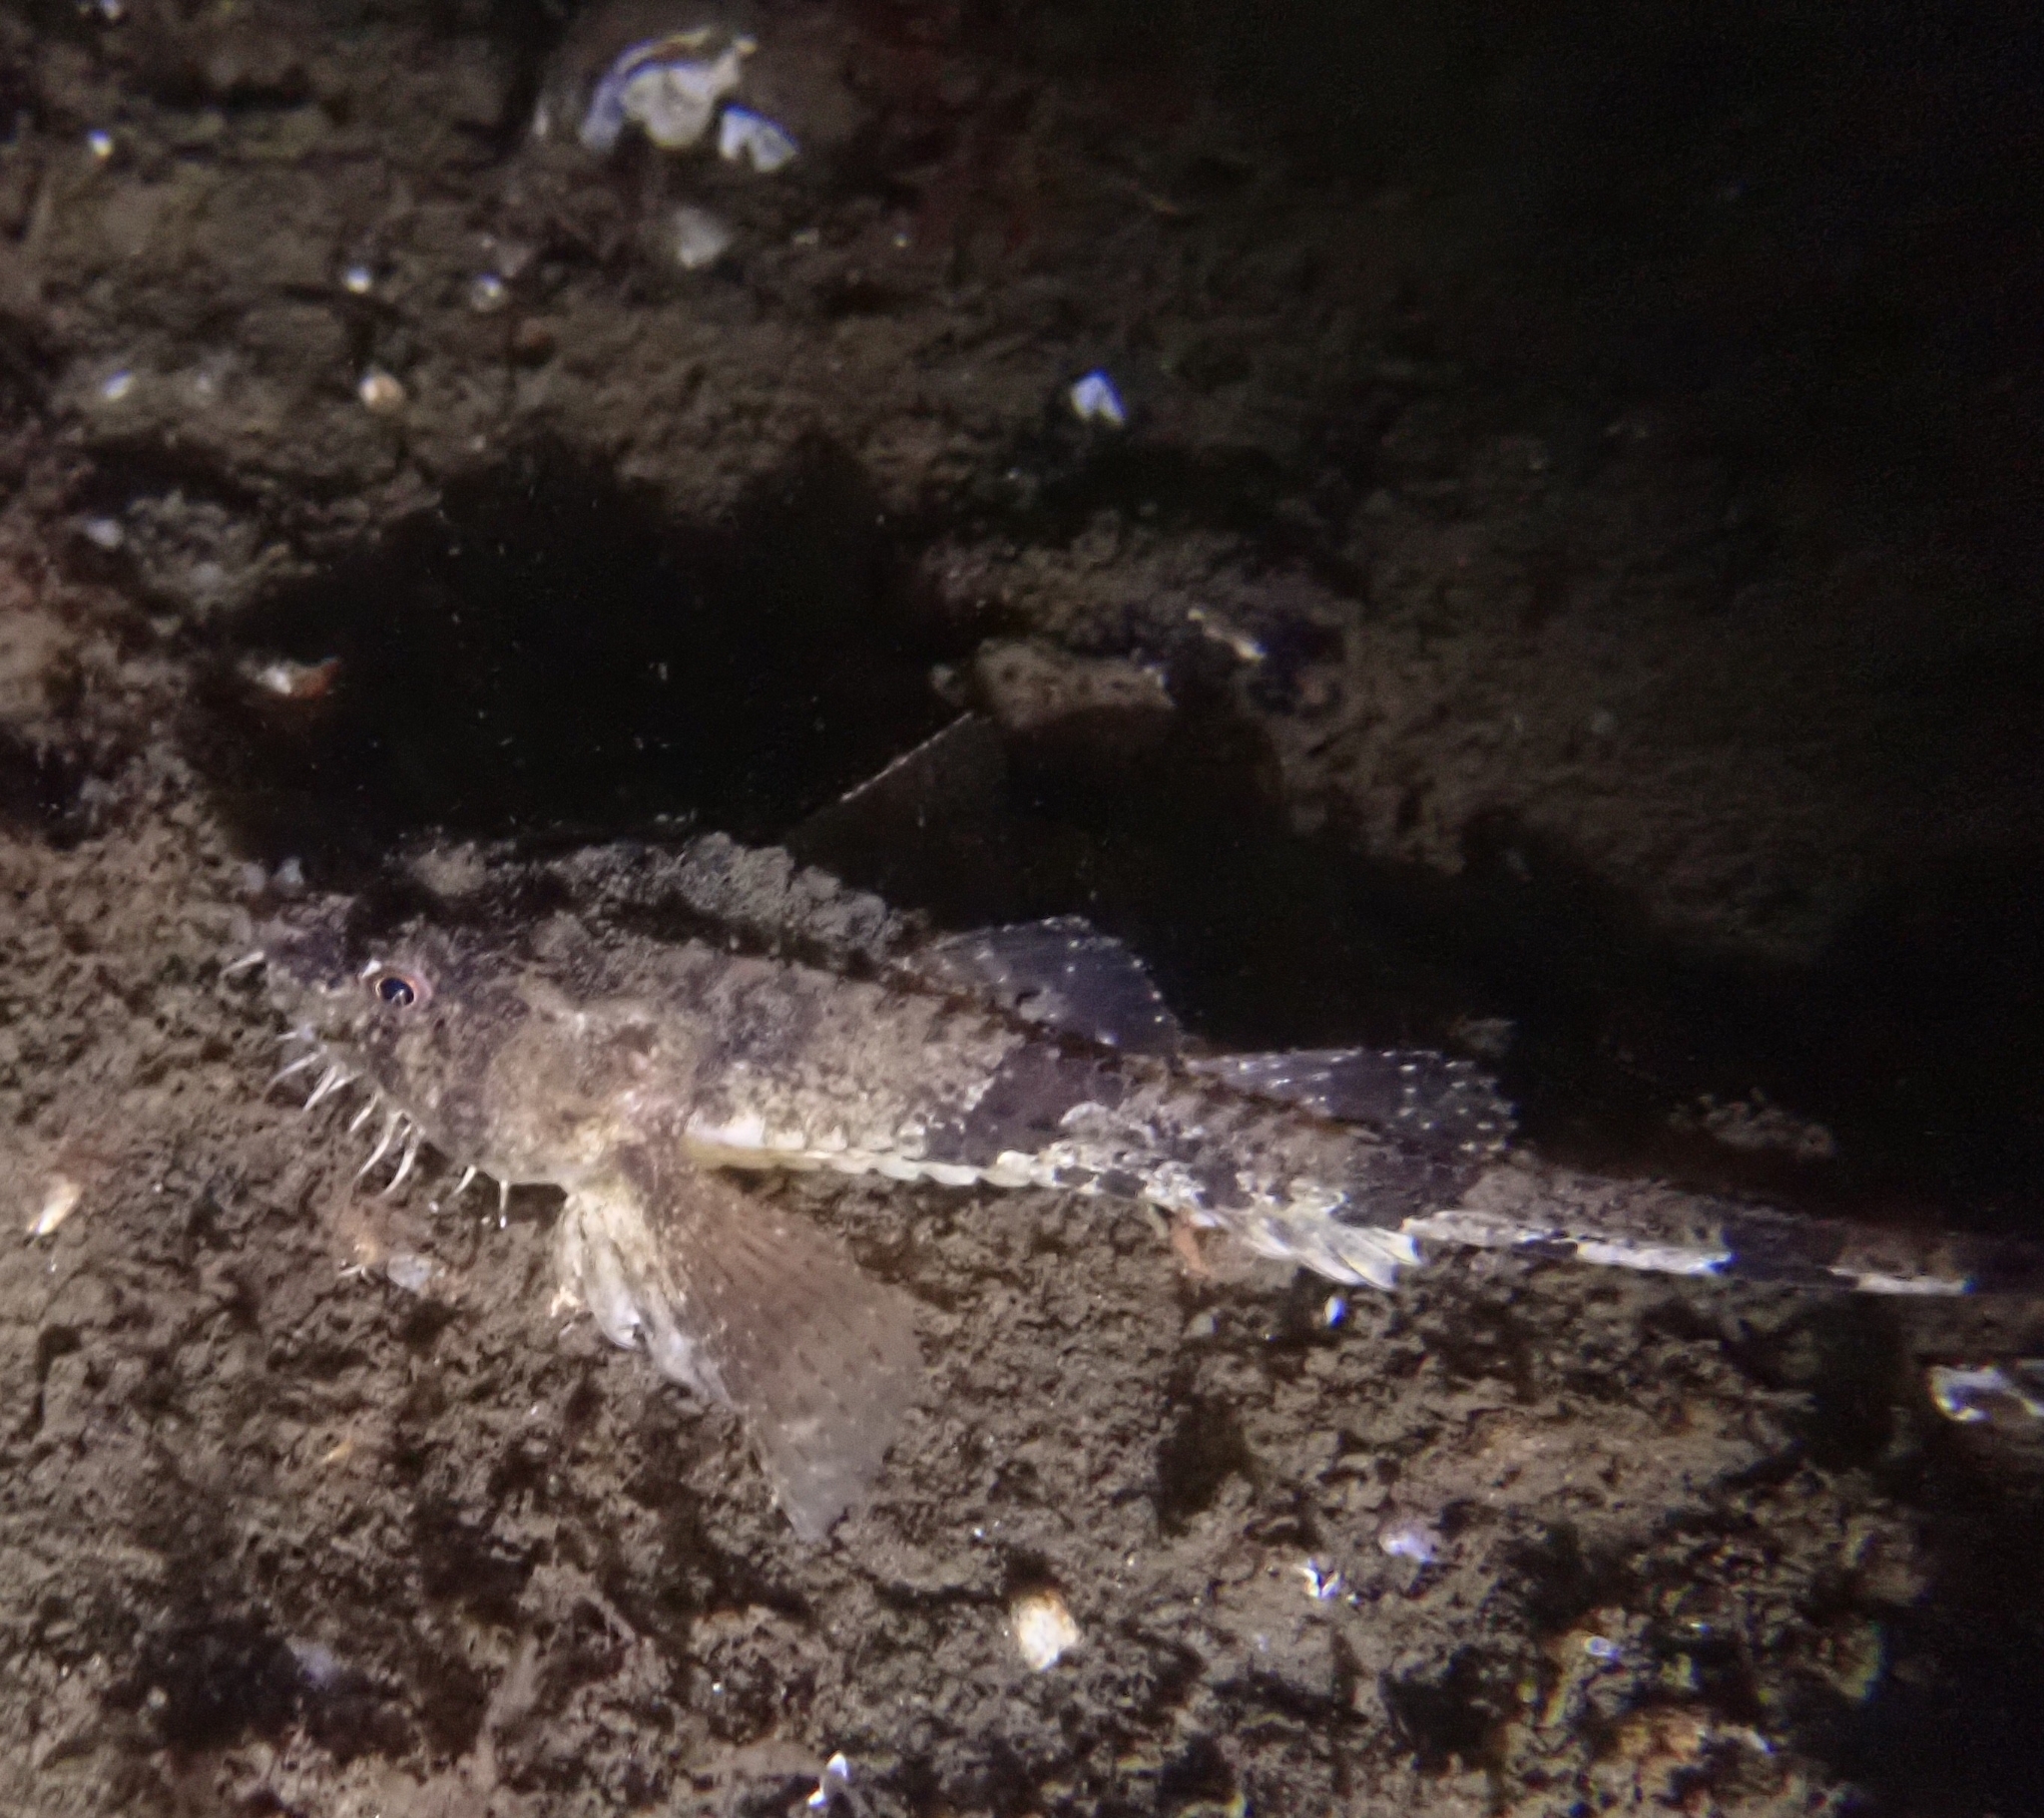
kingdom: Animalia
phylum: Chordata
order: Scorpaeniformes
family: Agonidae
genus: Agonus
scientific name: Agonus cataphractus
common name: Pogge
